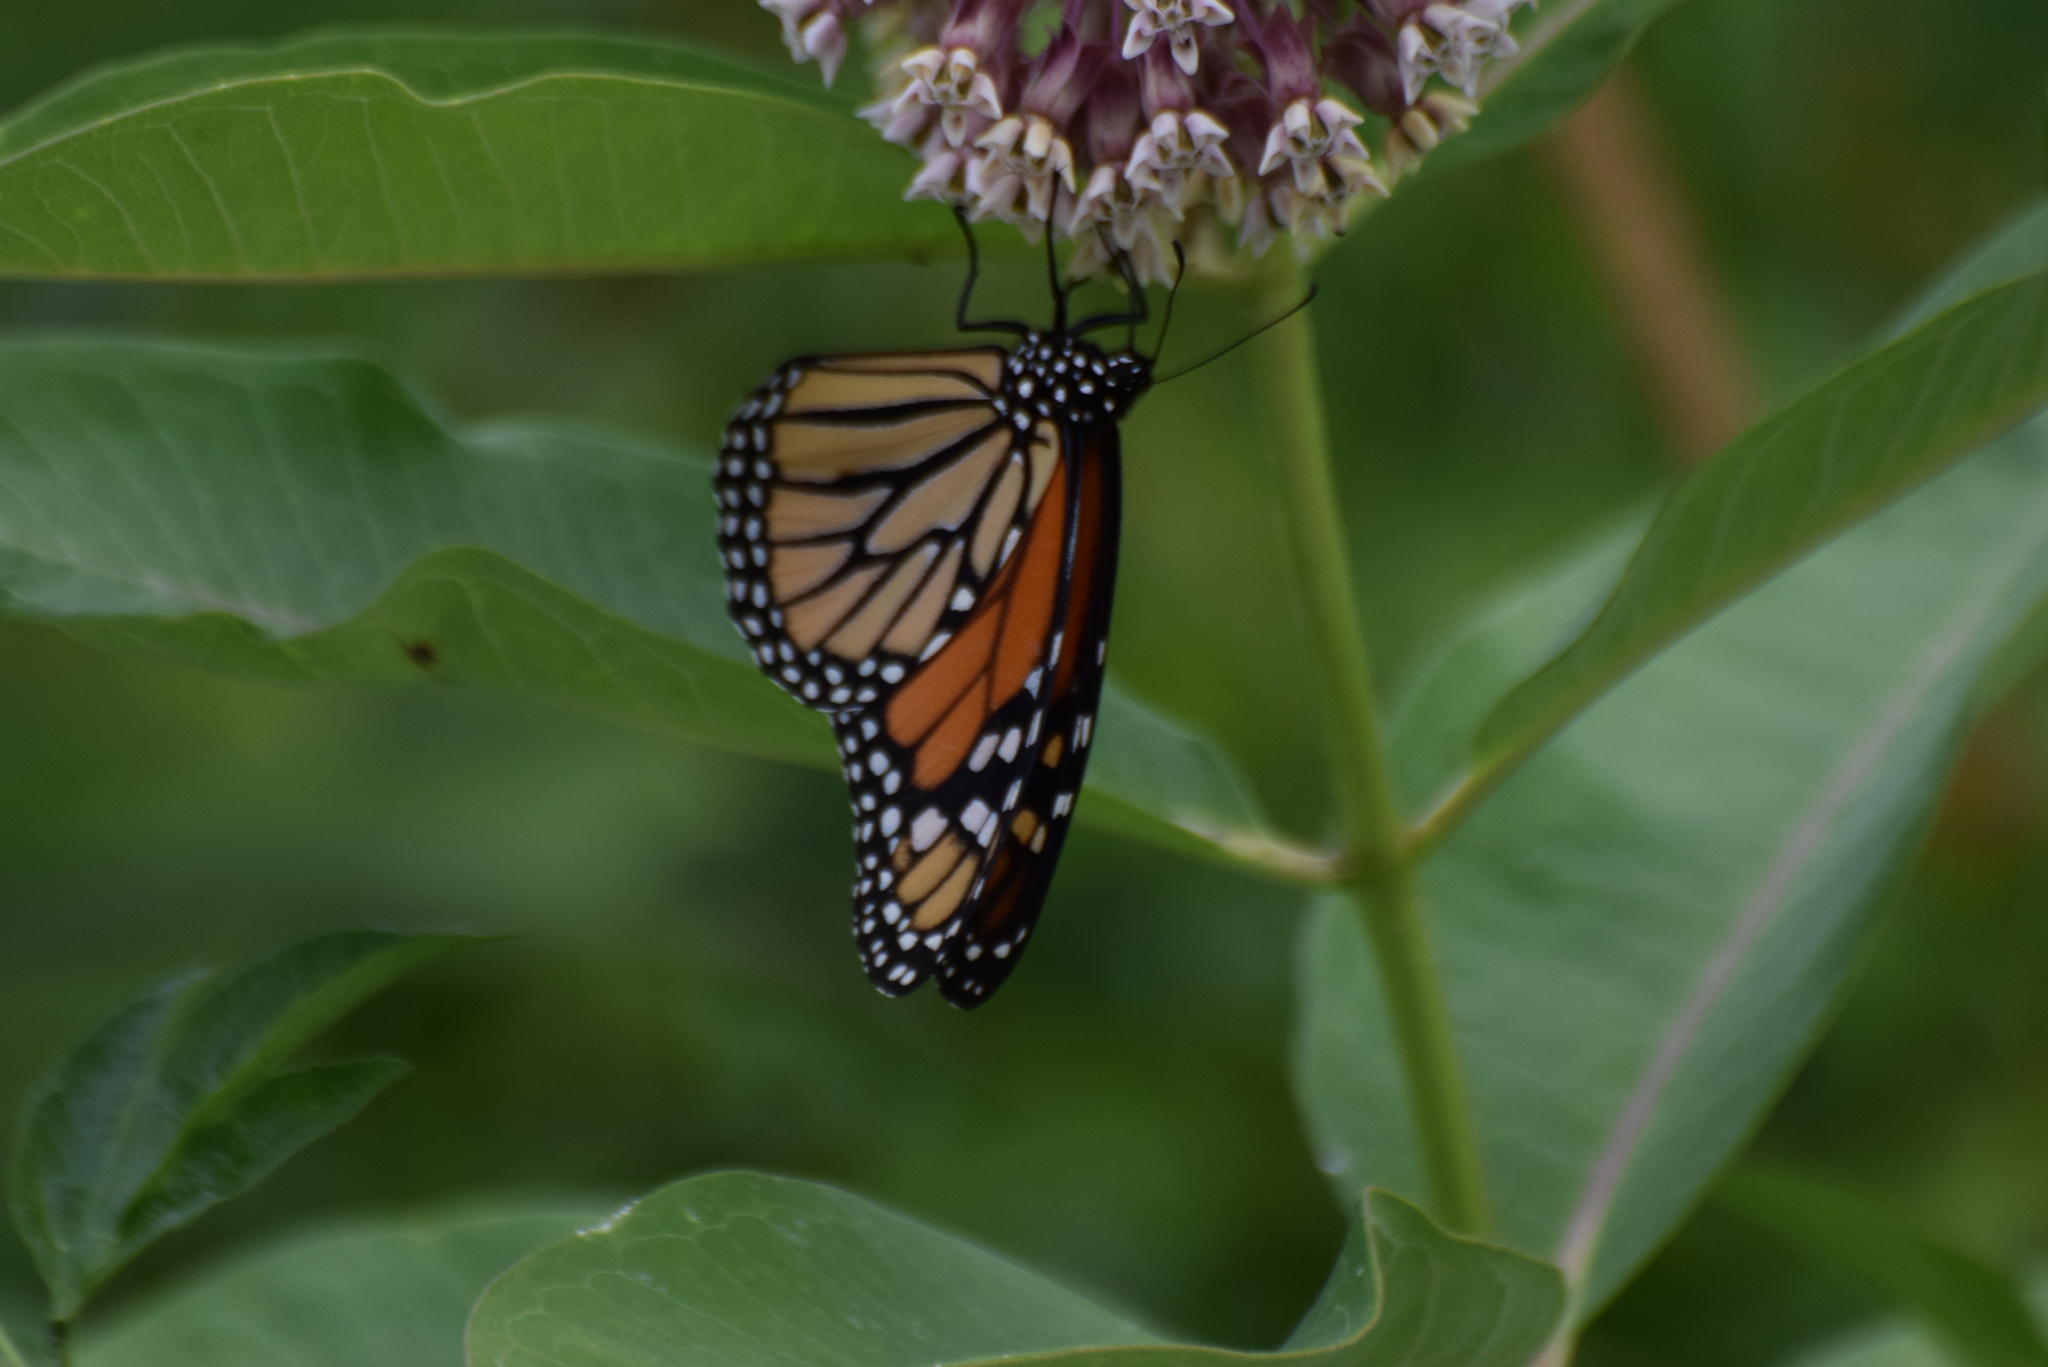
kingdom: Animalia
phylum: Arthropoda
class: Insecta
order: Lepidoptera
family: Nymphalidae
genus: Danaus
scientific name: Danaus plexippus
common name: Monarch
